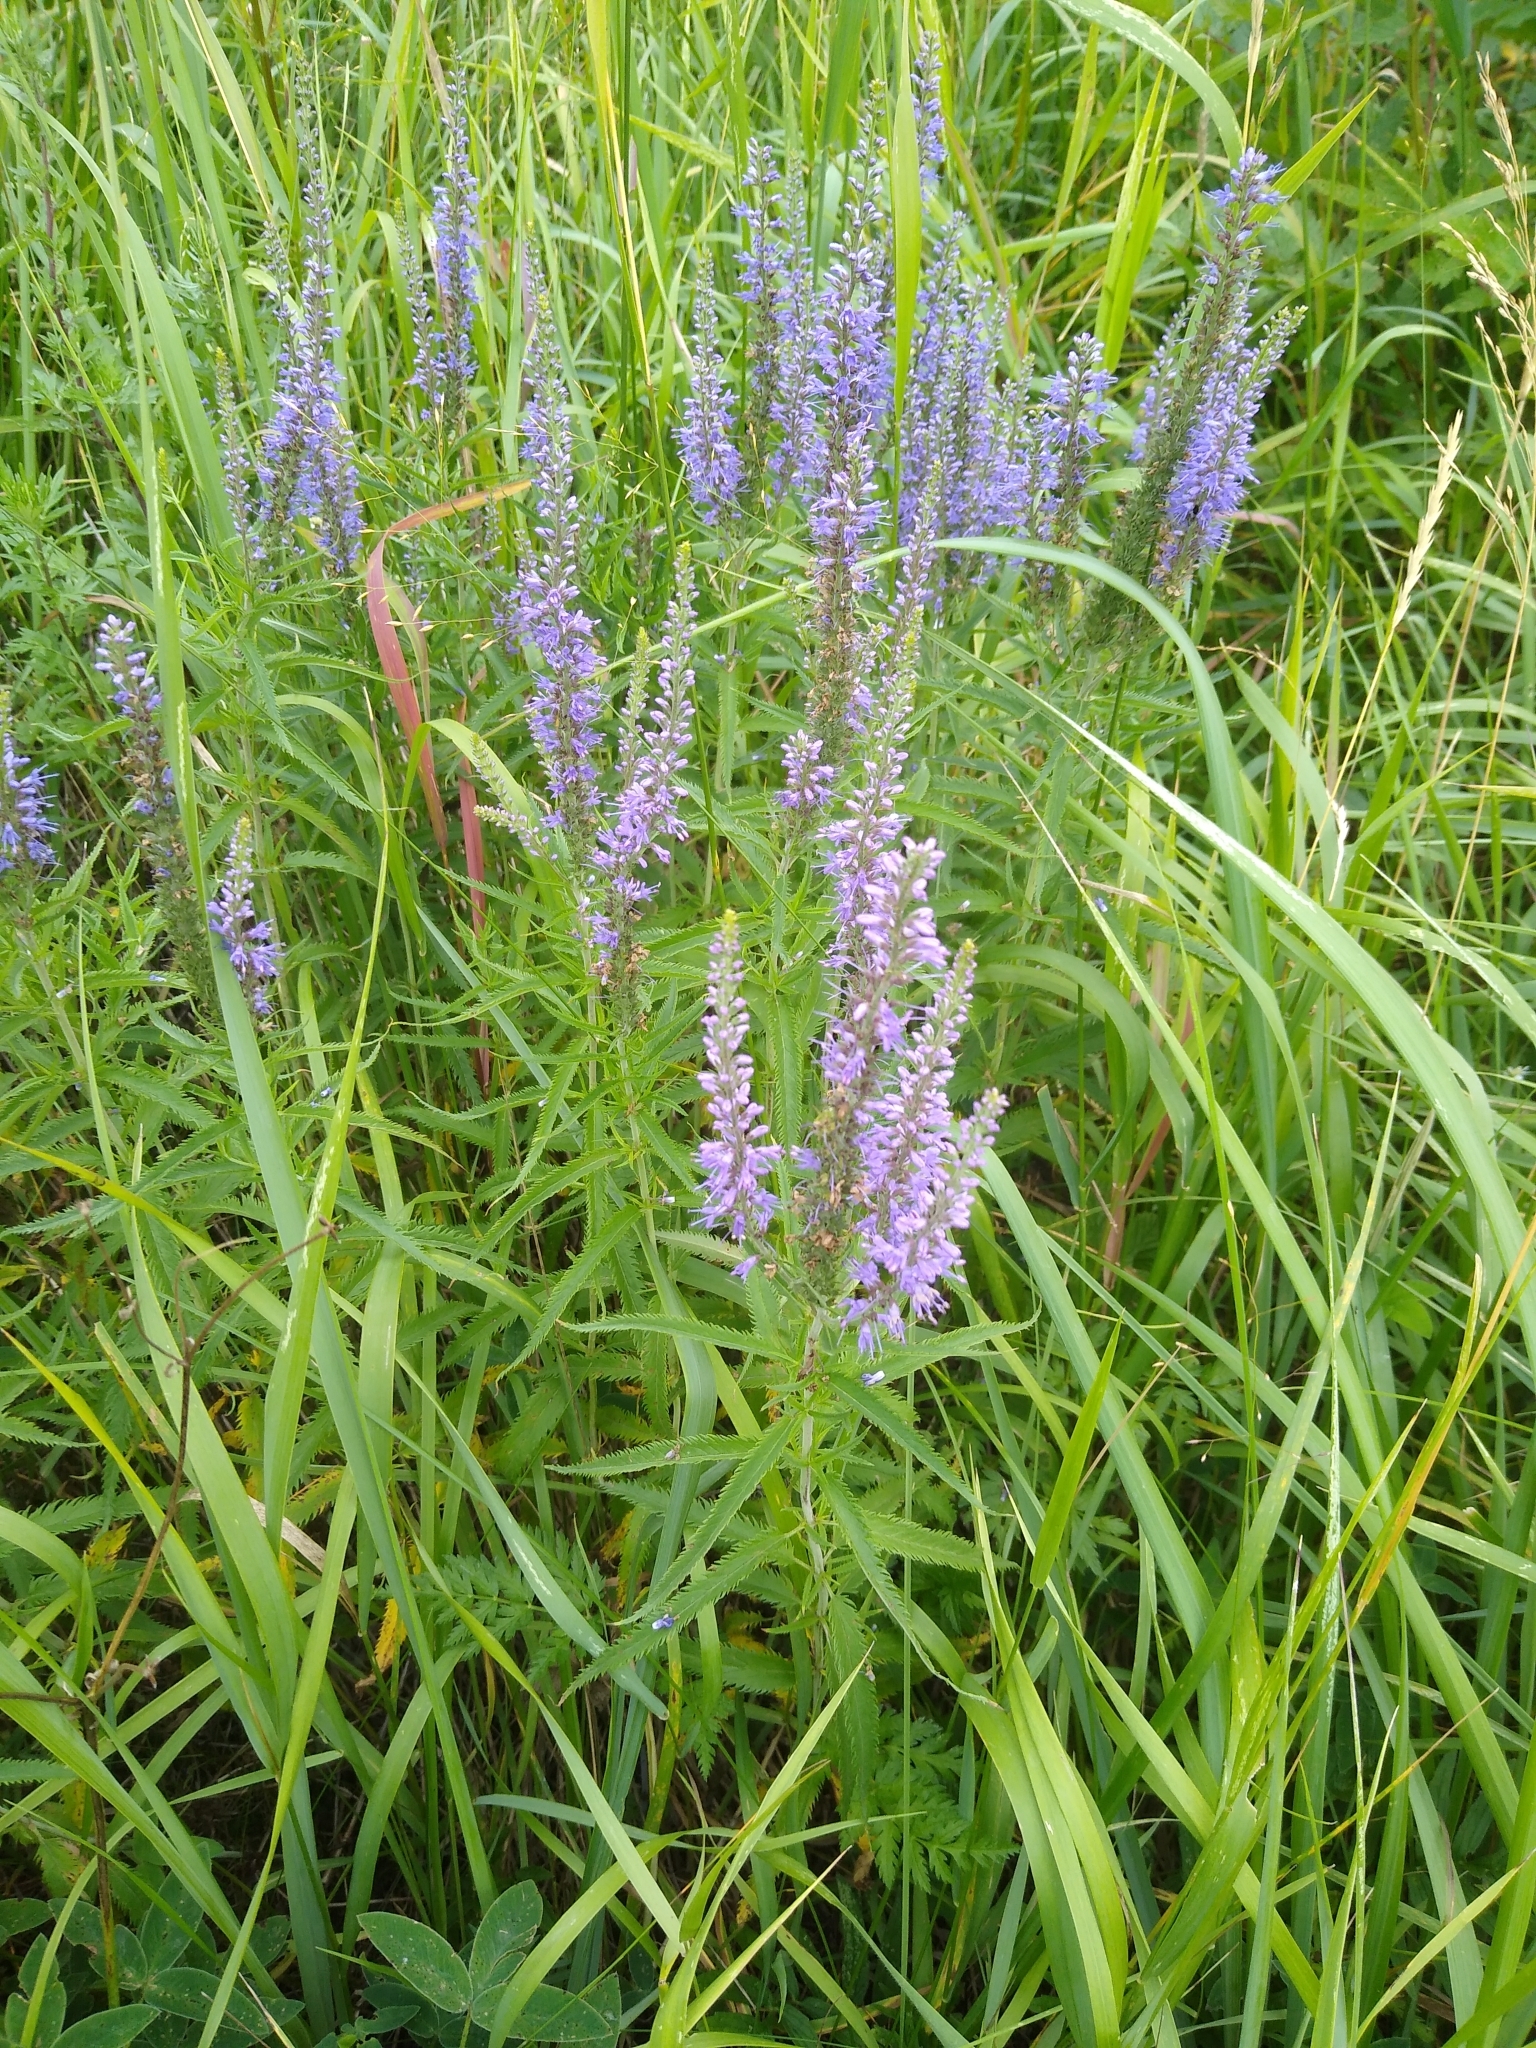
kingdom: Plantae
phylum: Tracheophyta
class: Magnoliopsida
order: Lamiales
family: Plantaginaceae
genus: Veronica
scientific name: Veronica longifolia
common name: Garden speedwell
